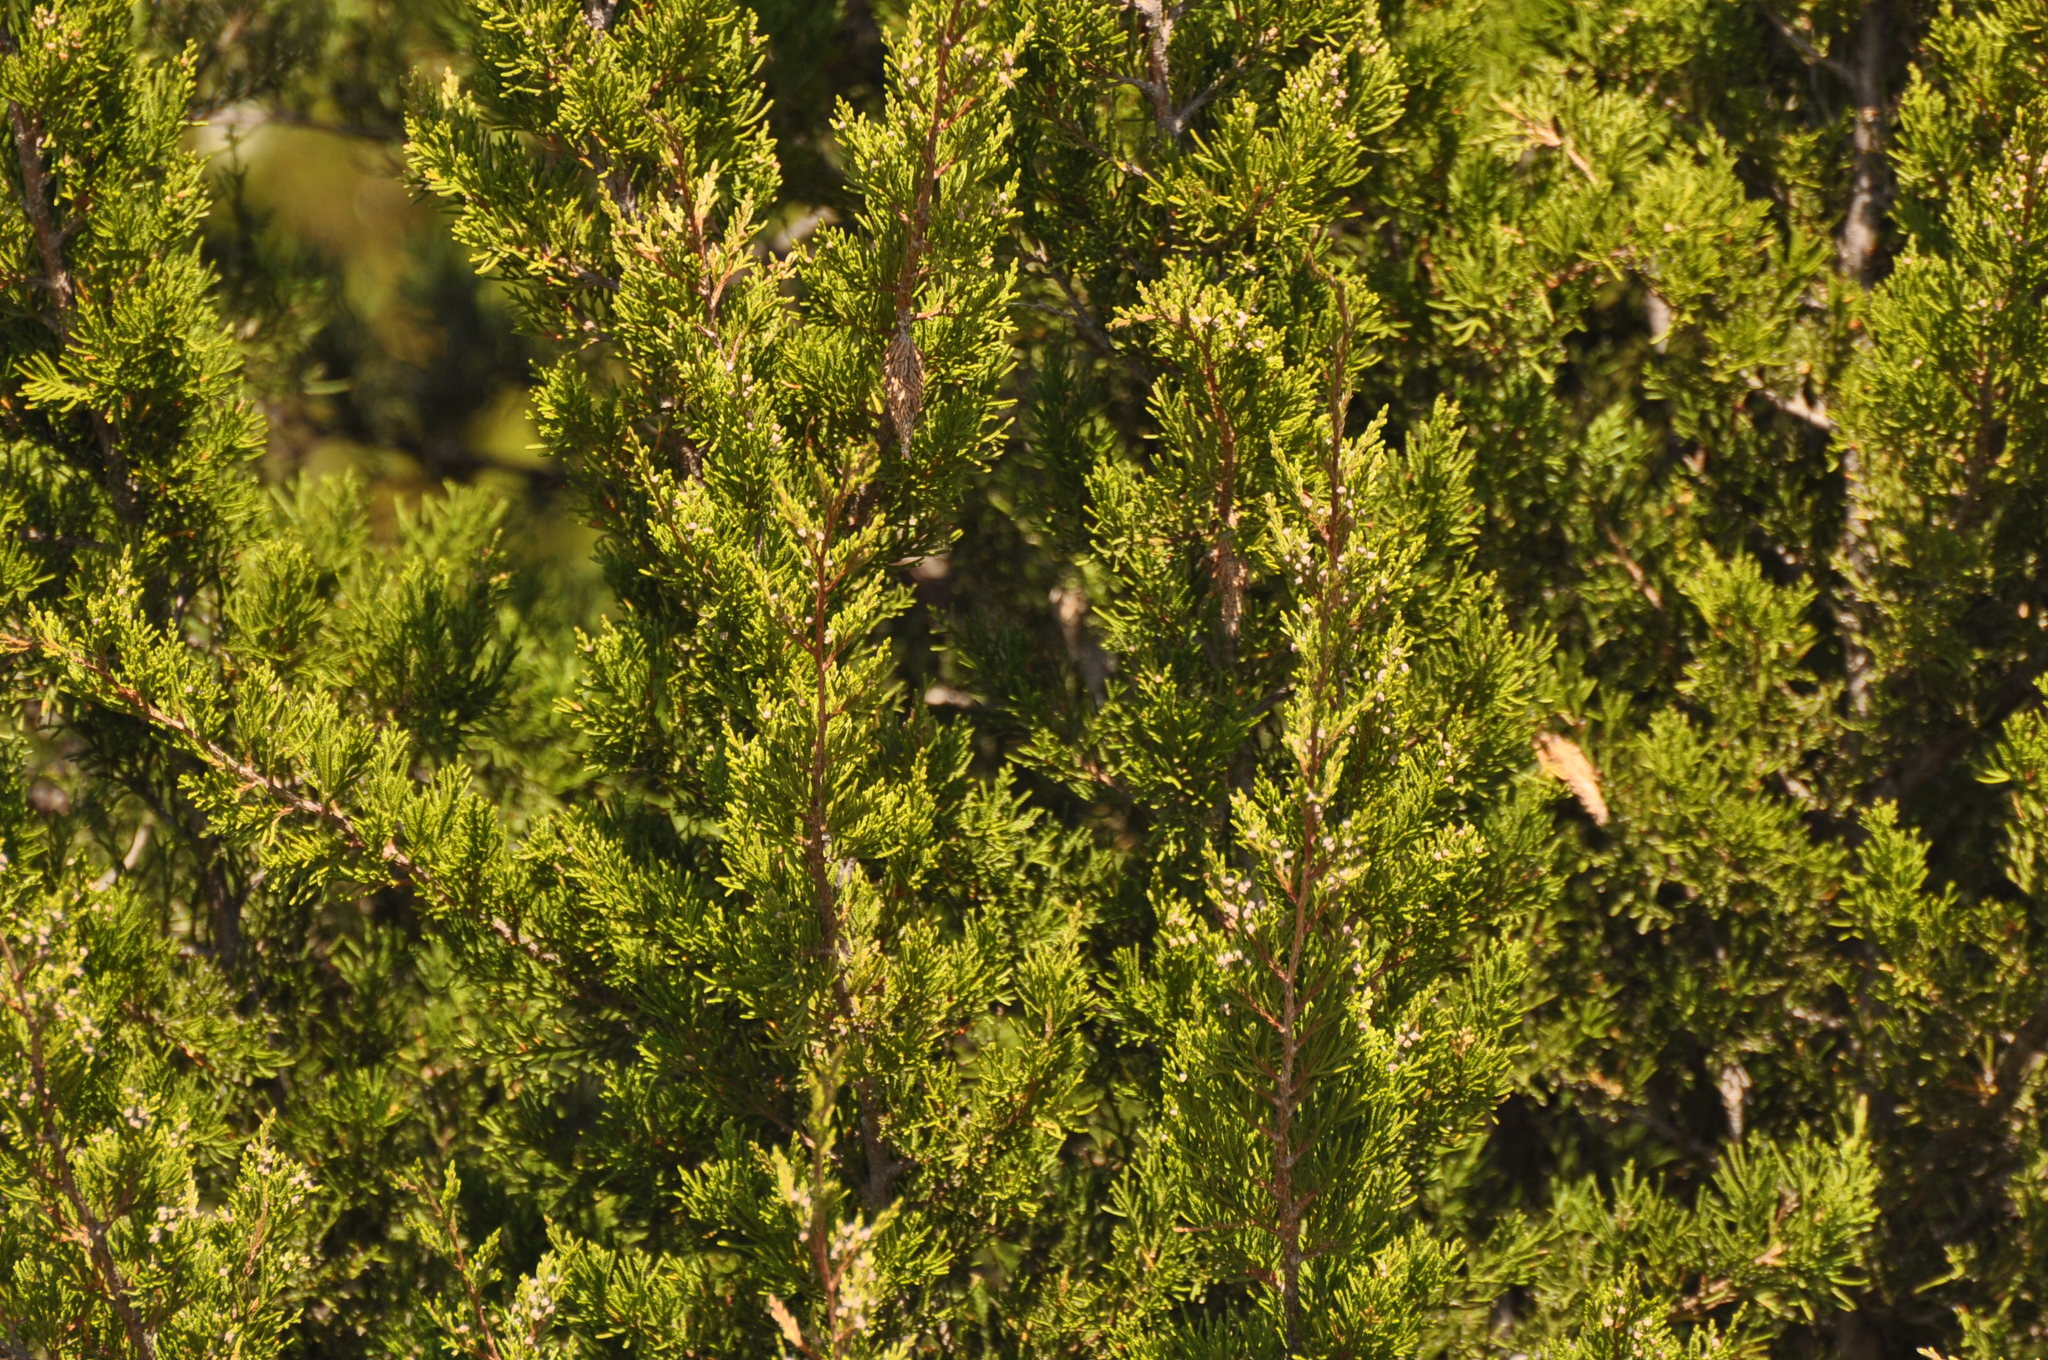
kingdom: Plantae
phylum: Tracheophyta
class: Pinopsida
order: Pinales
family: Cupressaceae
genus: Juniperus
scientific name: Juniperus virginiana
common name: Red juniper
